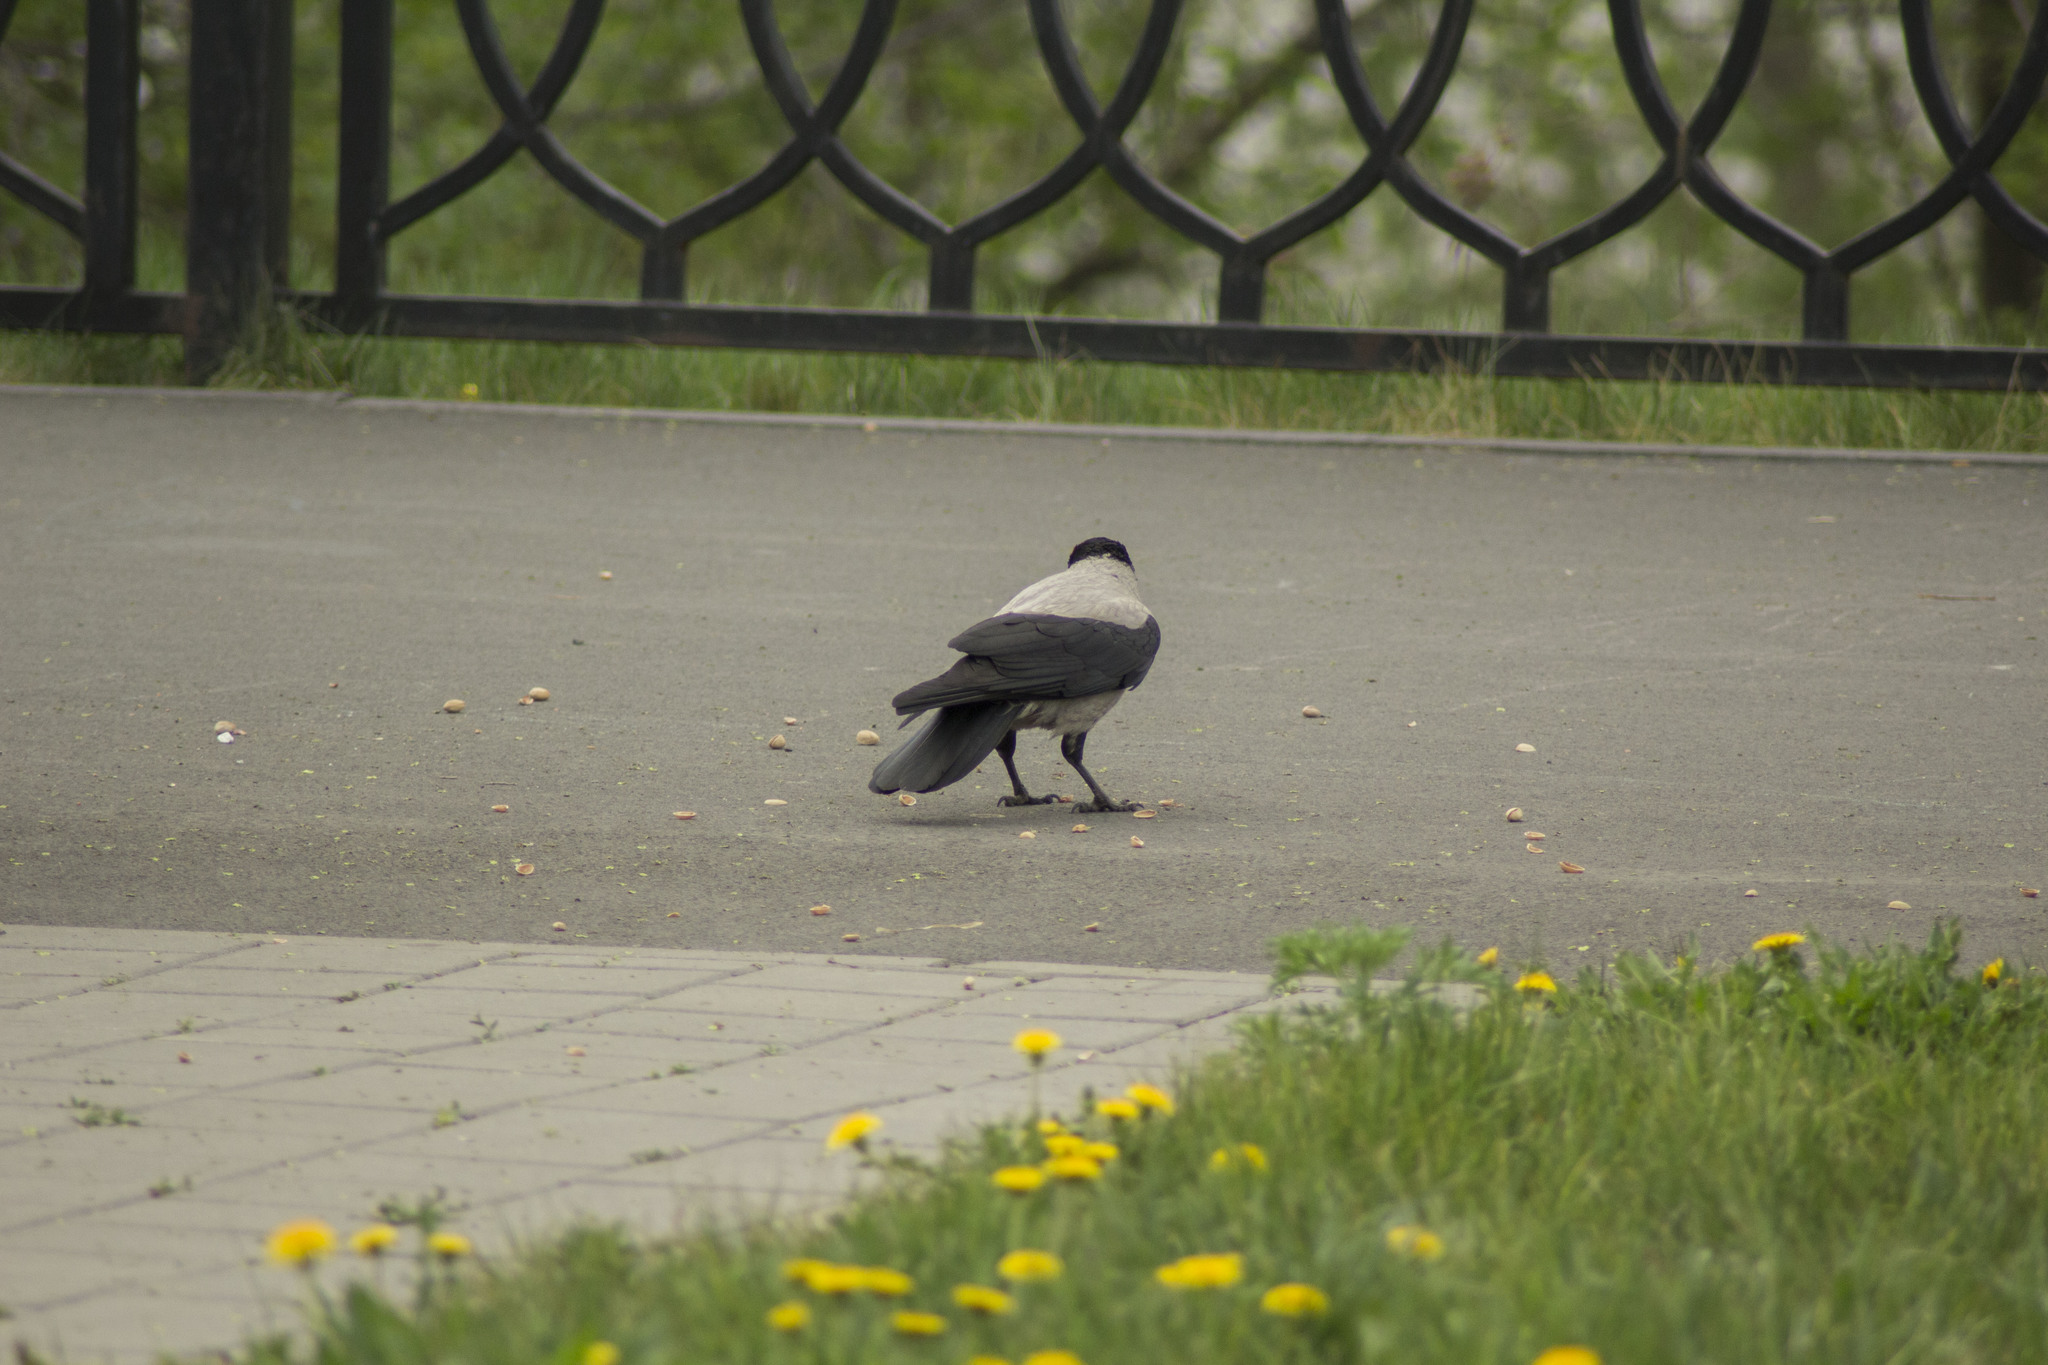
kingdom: Animalia
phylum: Chordata
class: Aves
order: Passeriformes
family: Corvidae
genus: Corvus
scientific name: Corvus cornix
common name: Hooded crow
